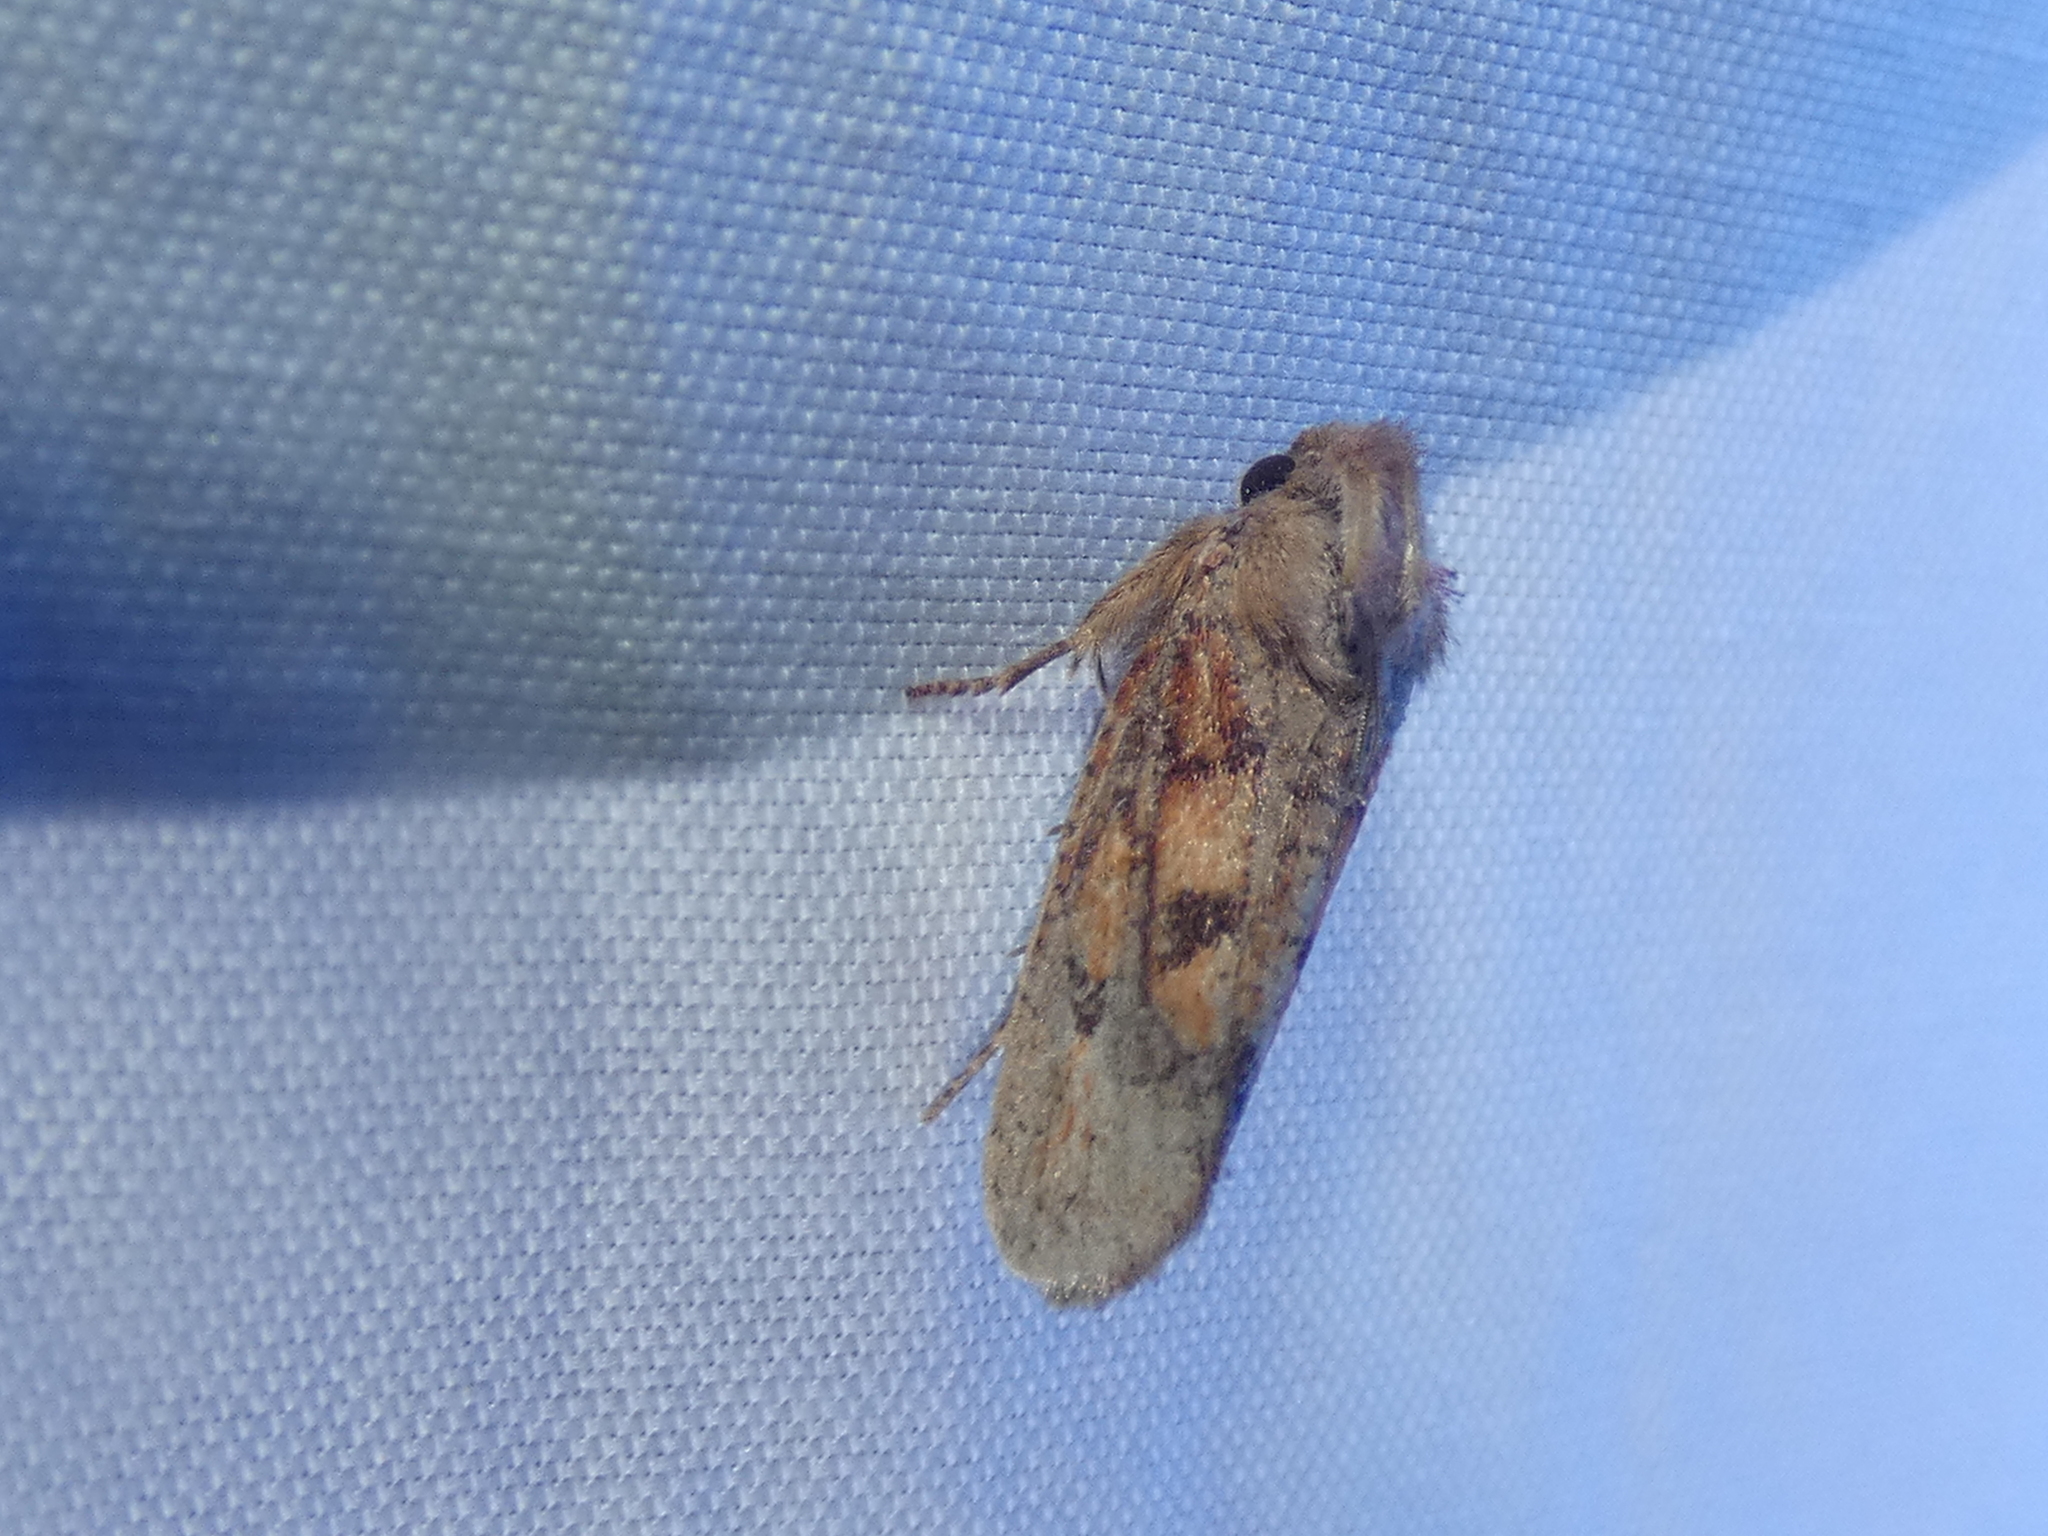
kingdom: Animalia
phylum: Arthropoda
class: Insecta
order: Lepidoptera
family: Tineidae
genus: Acrolophus
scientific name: Acrolophus plumifrontella
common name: Eastern grass tubeworm moth
